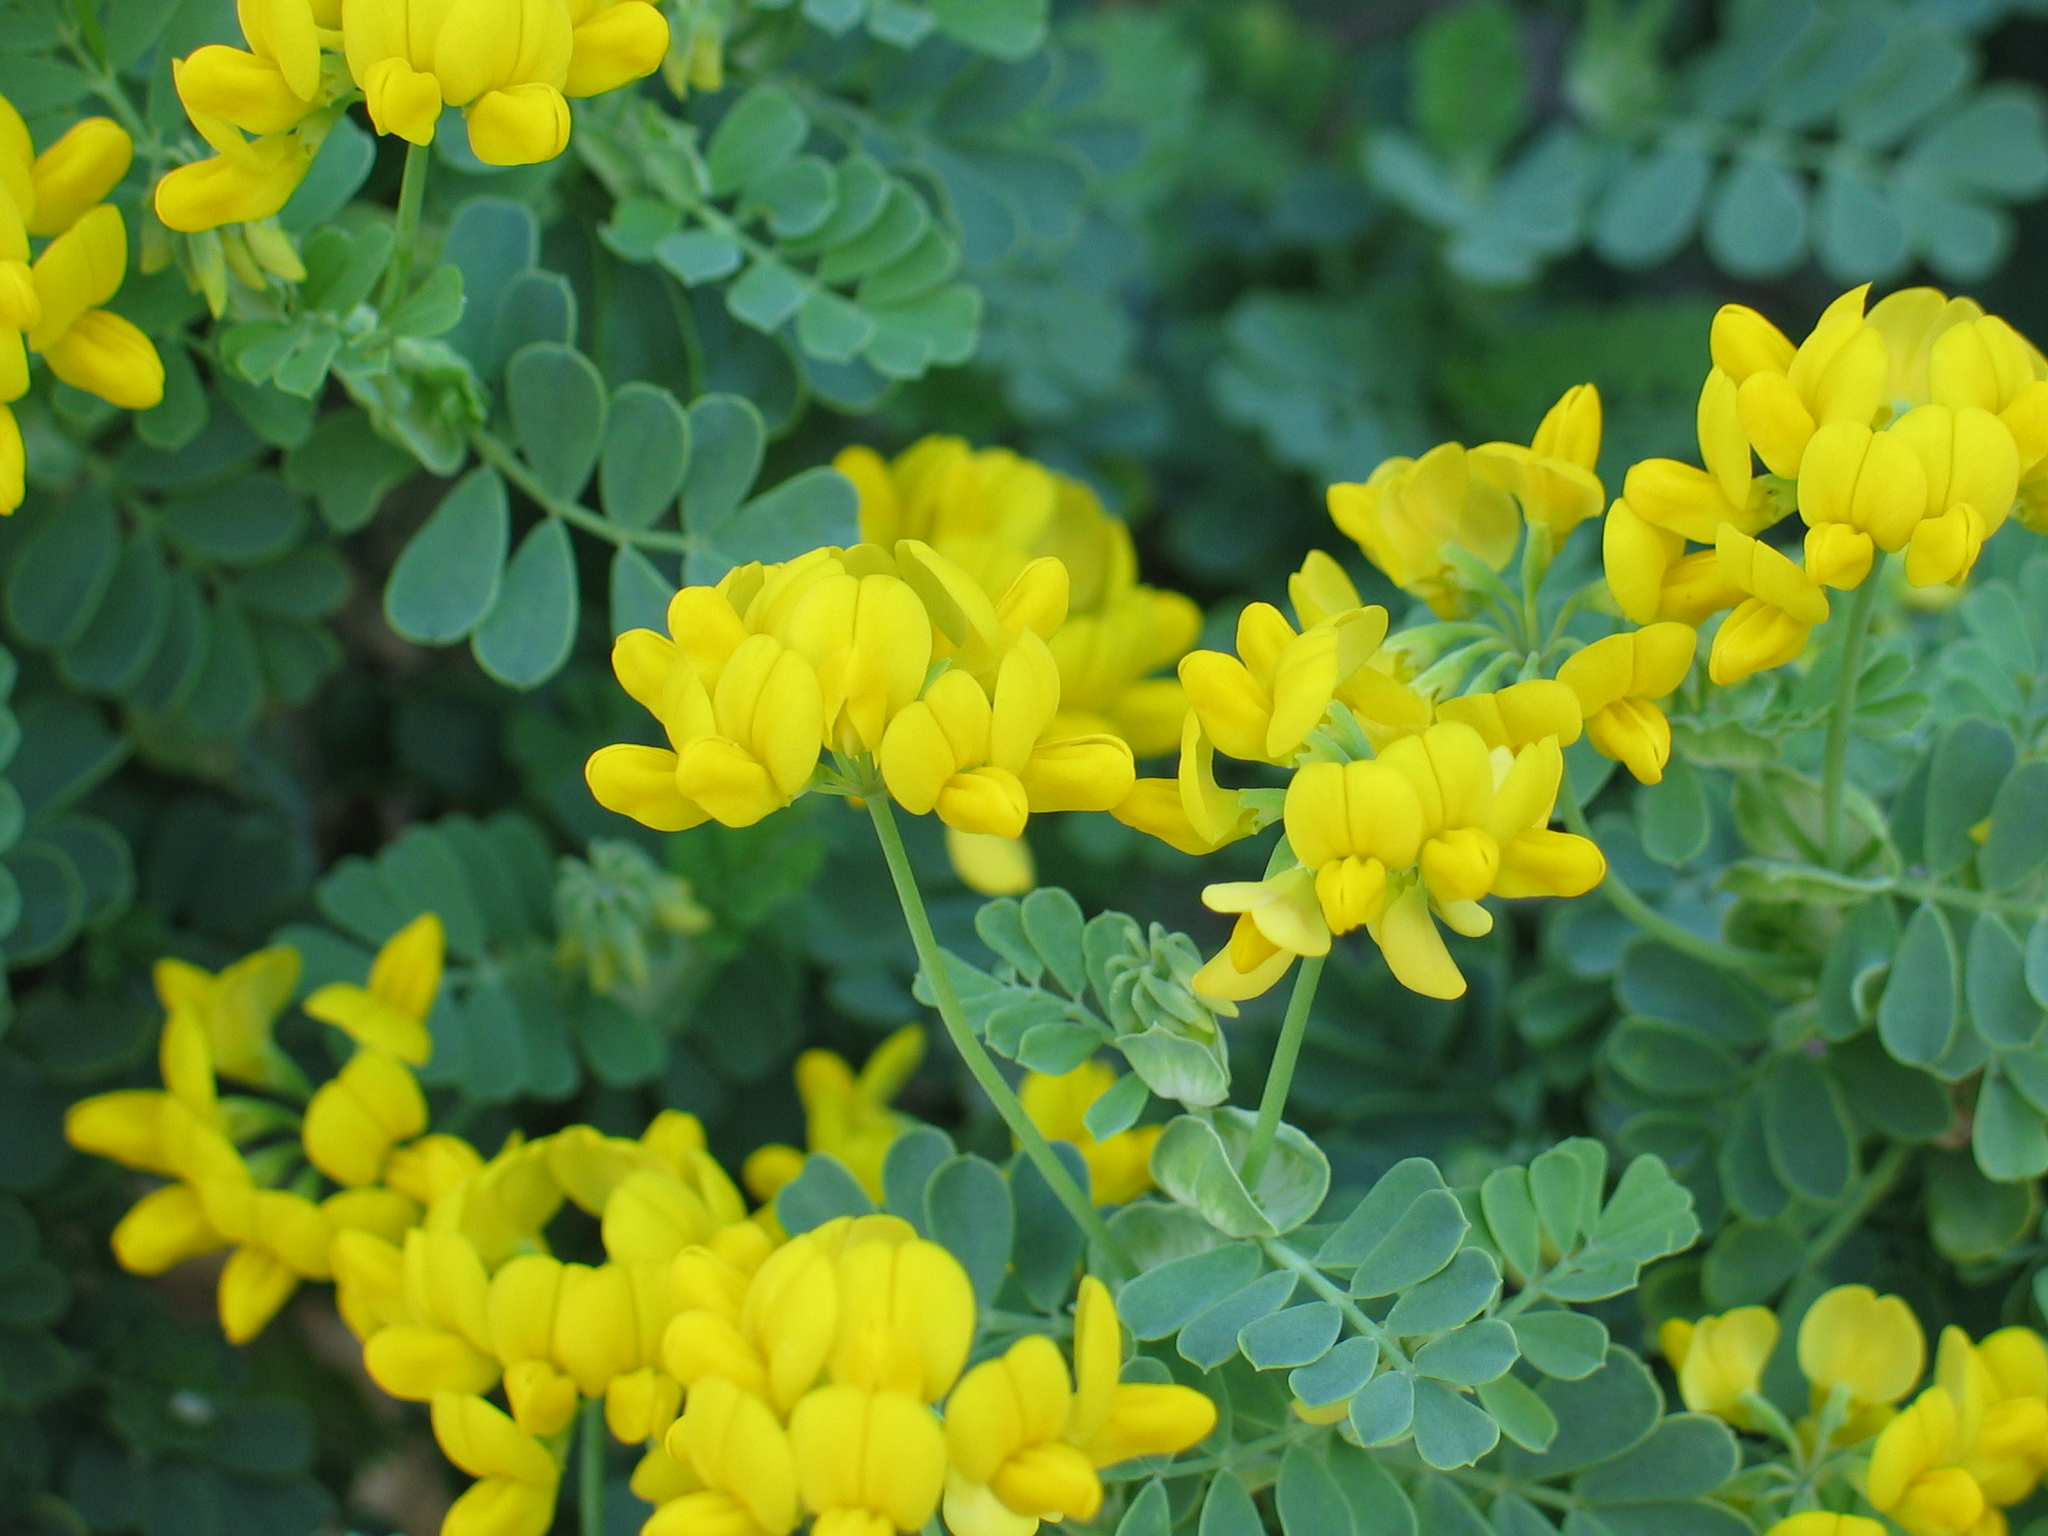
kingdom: Plantae
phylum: Tracheophyta
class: Magnoliopsida
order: Fabales
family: Fabaceae
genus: Coronilla
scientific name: Coronilla valentina
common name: Shrubby scorpion-vetch
